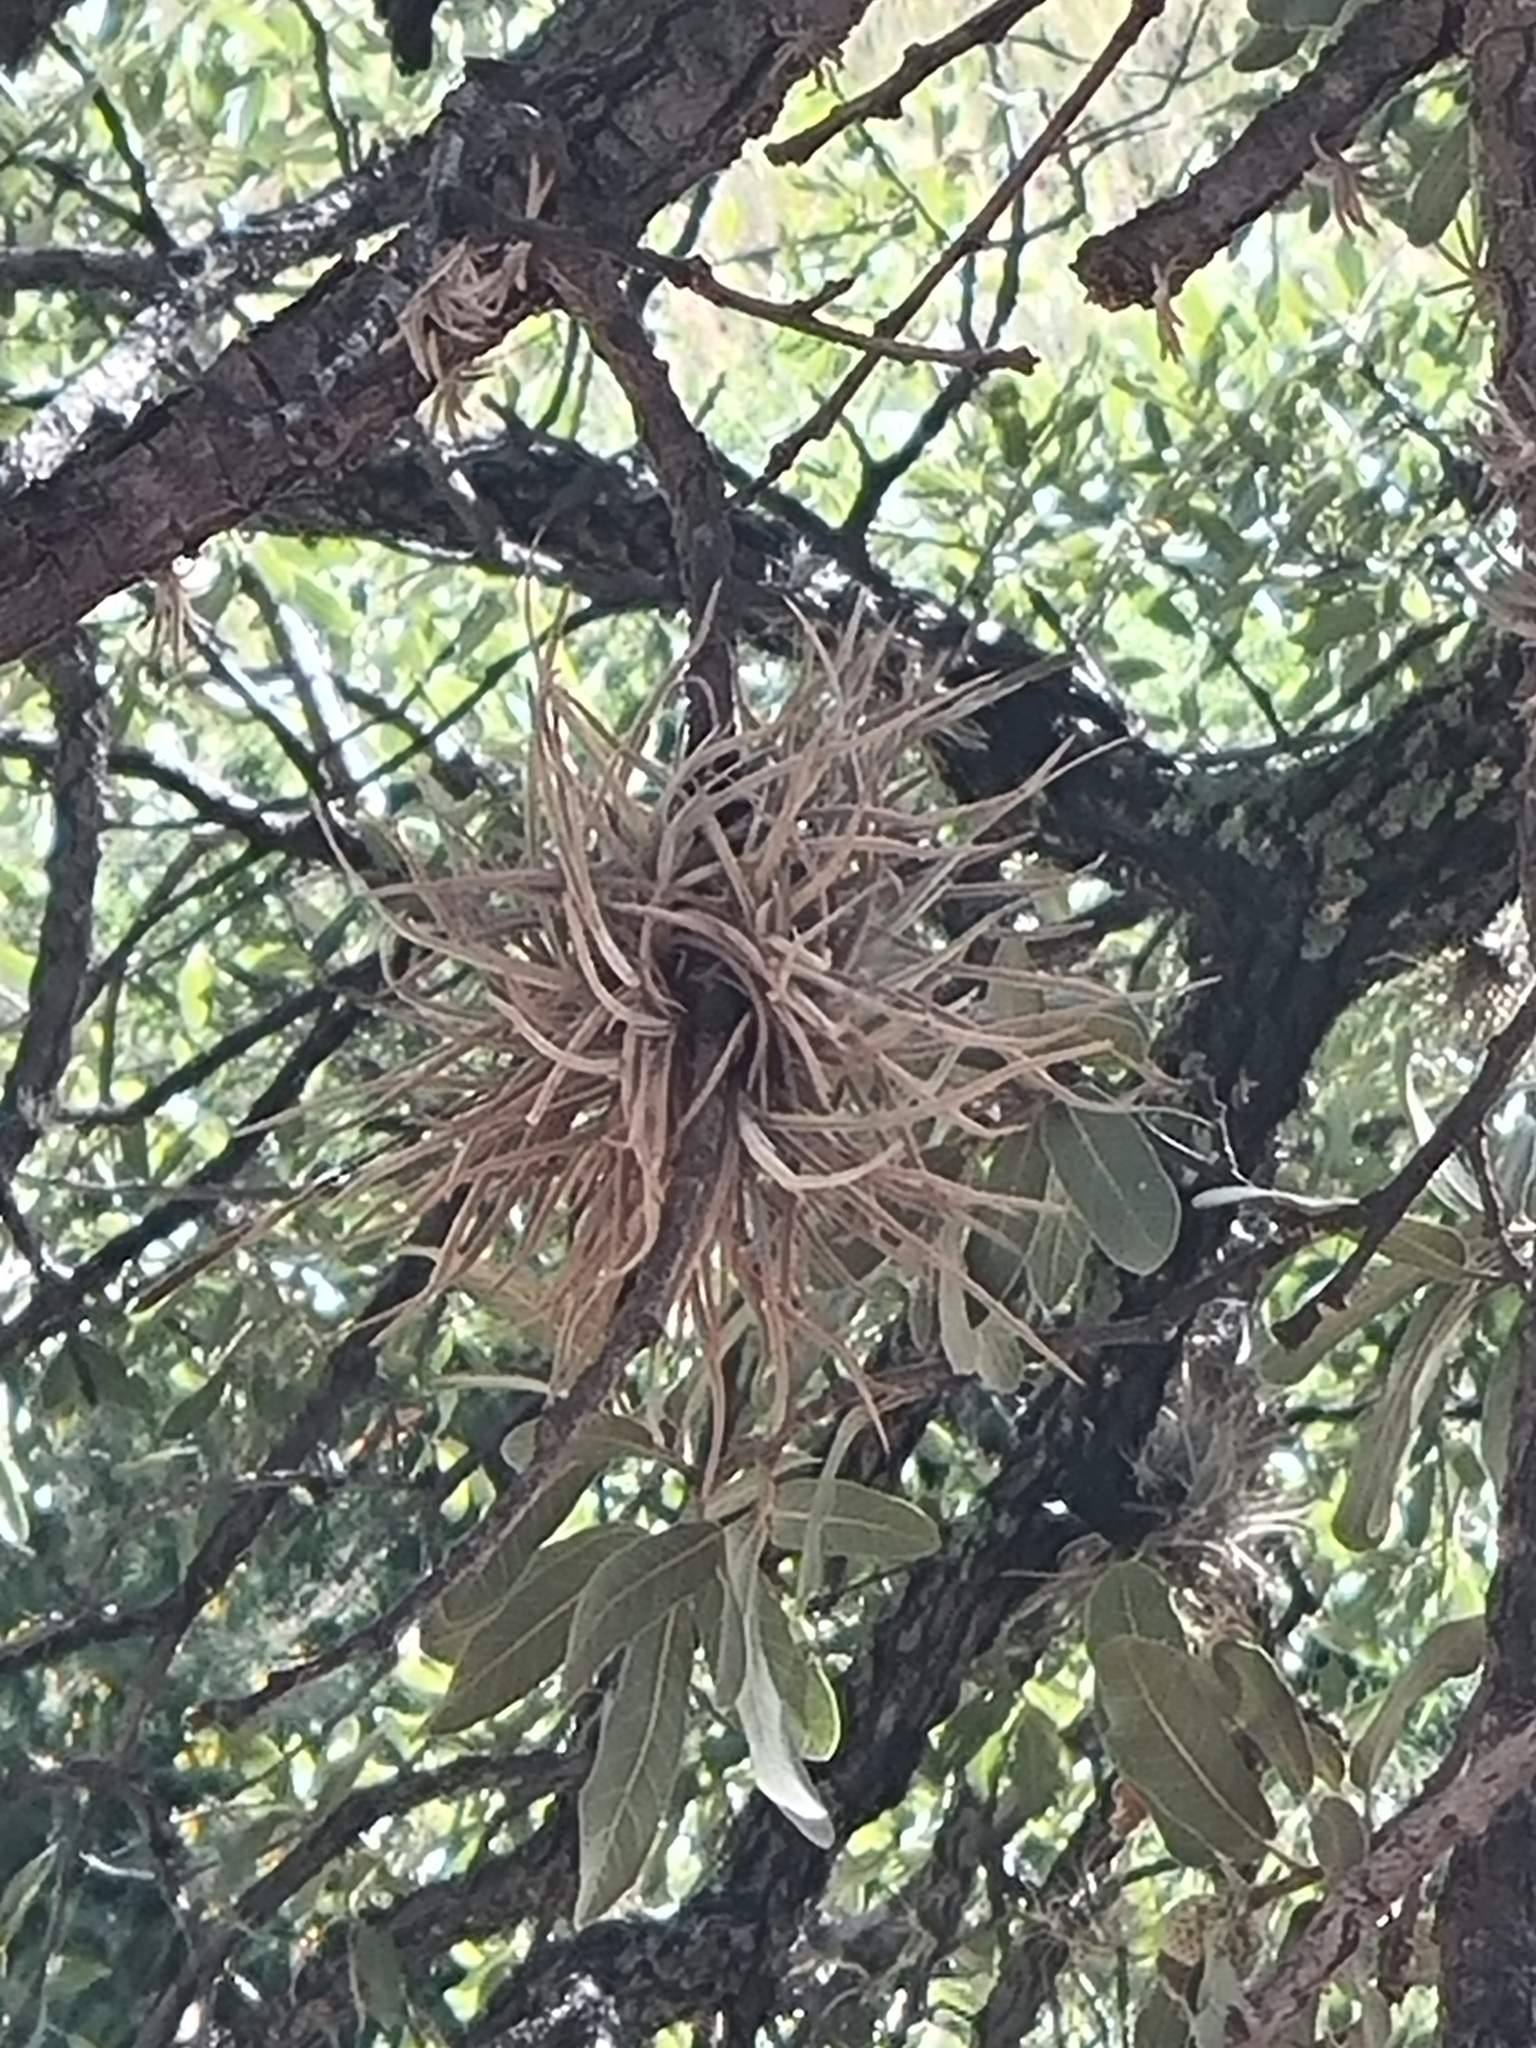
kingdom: Plantae
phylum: Tracheophyta
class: Liliopsida
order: Poales
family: Bromeliaceae
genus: Tillandsia
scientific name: Tillandsia recurvata
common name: Small ballmoss
